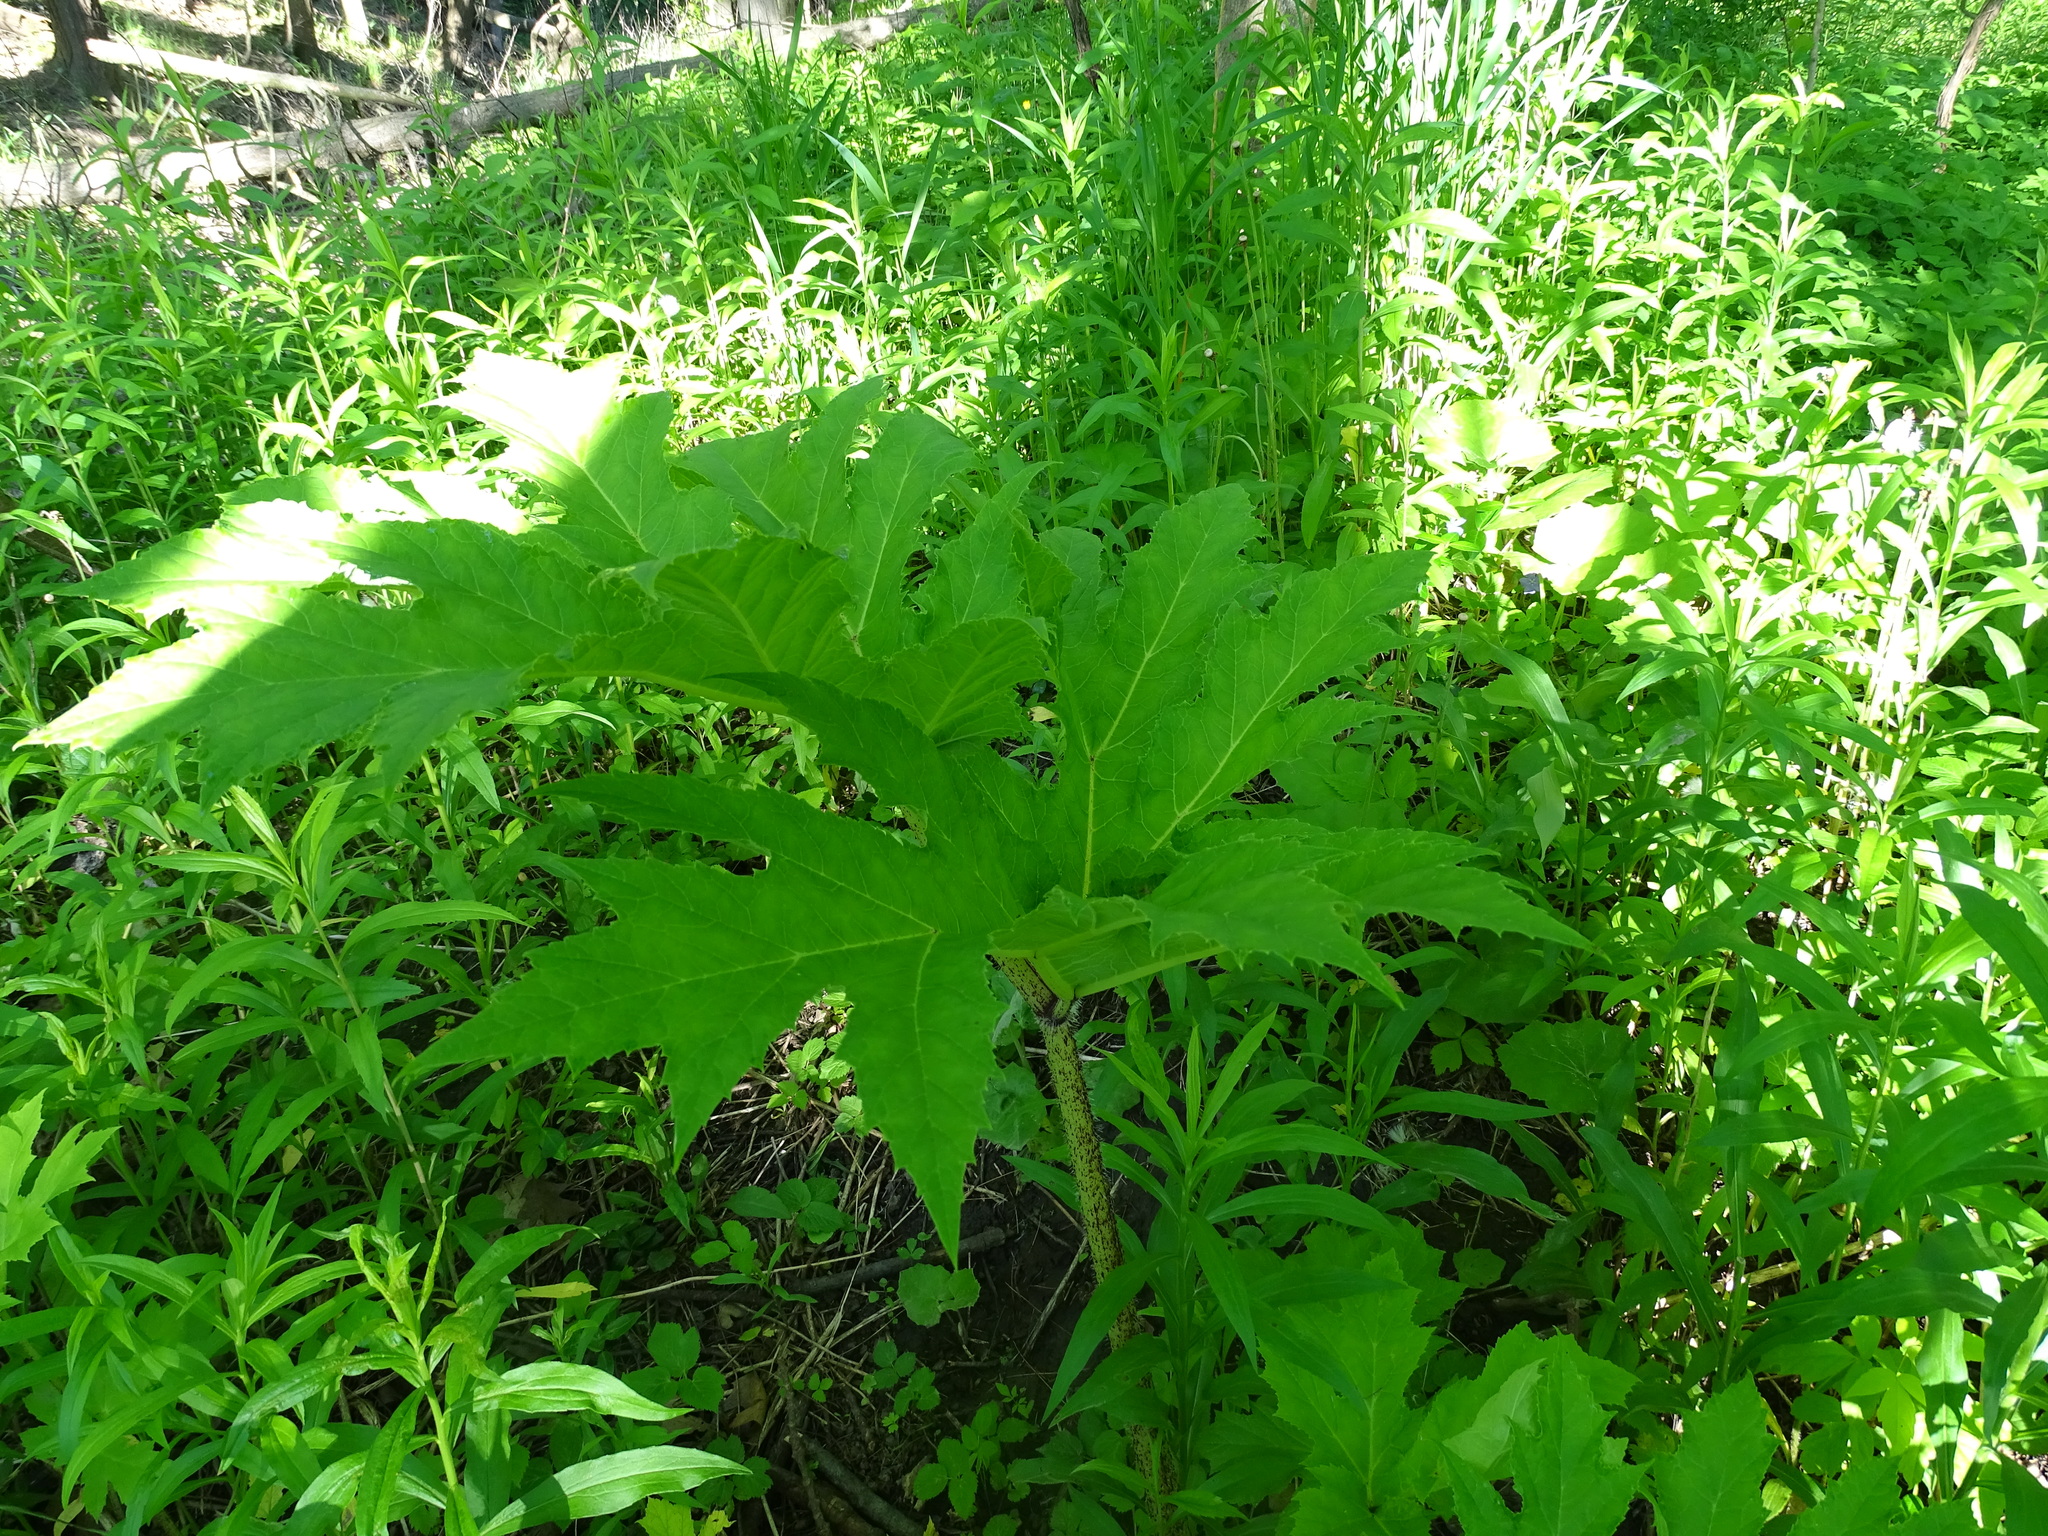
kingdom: Plantae
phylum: Tracheophyta
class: Magnoliopsida
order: Apiales
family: Apiaceae
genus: Heracleum
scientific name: Heracleum mantegazzianum
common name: Giant hogweed
